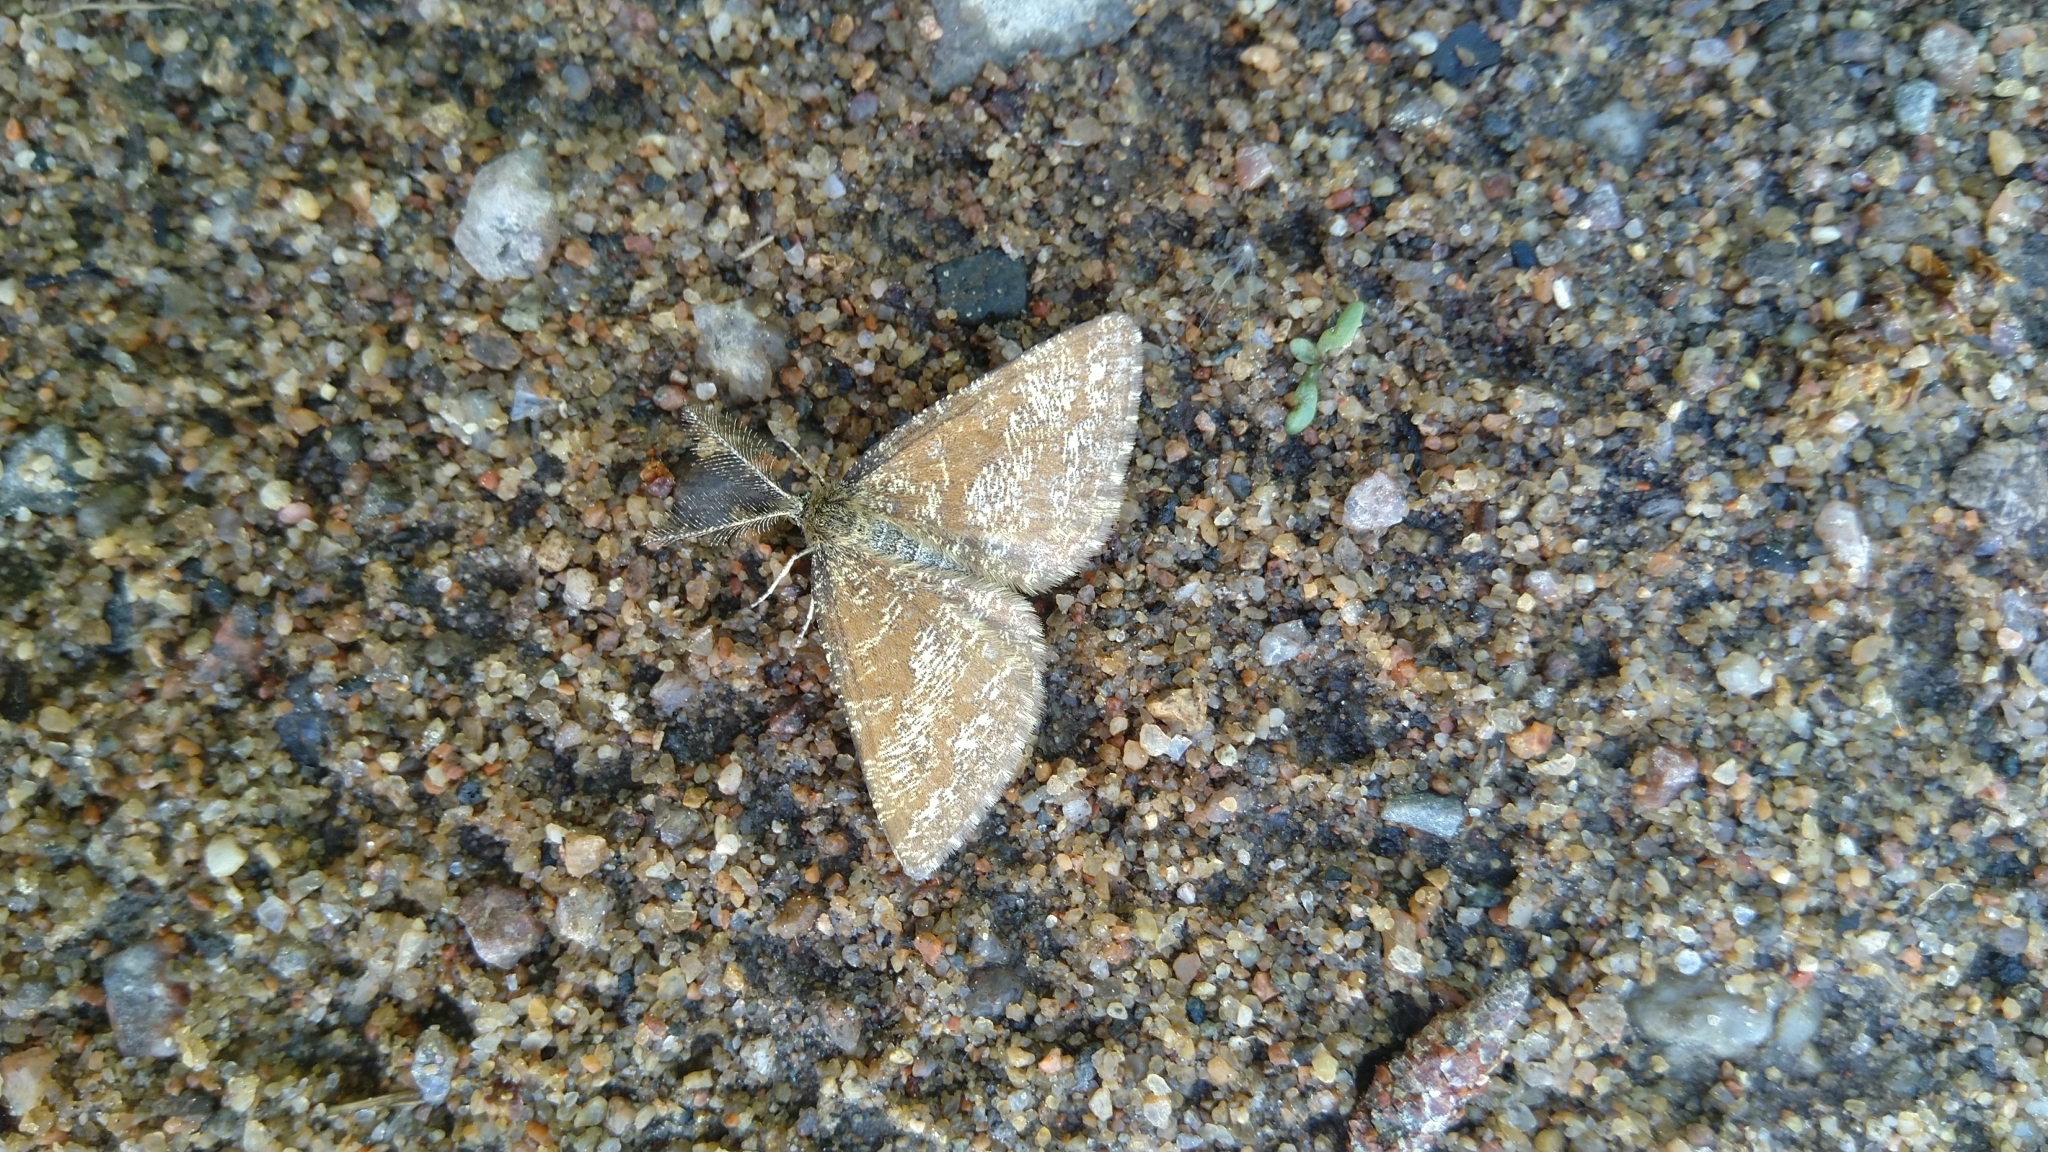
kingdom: Animalia
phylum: Arthropoda
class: Insecta
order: Lepidoptera
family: Geometridae
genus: Ematurga
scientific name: Ematurga atomaria
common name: Common heath
